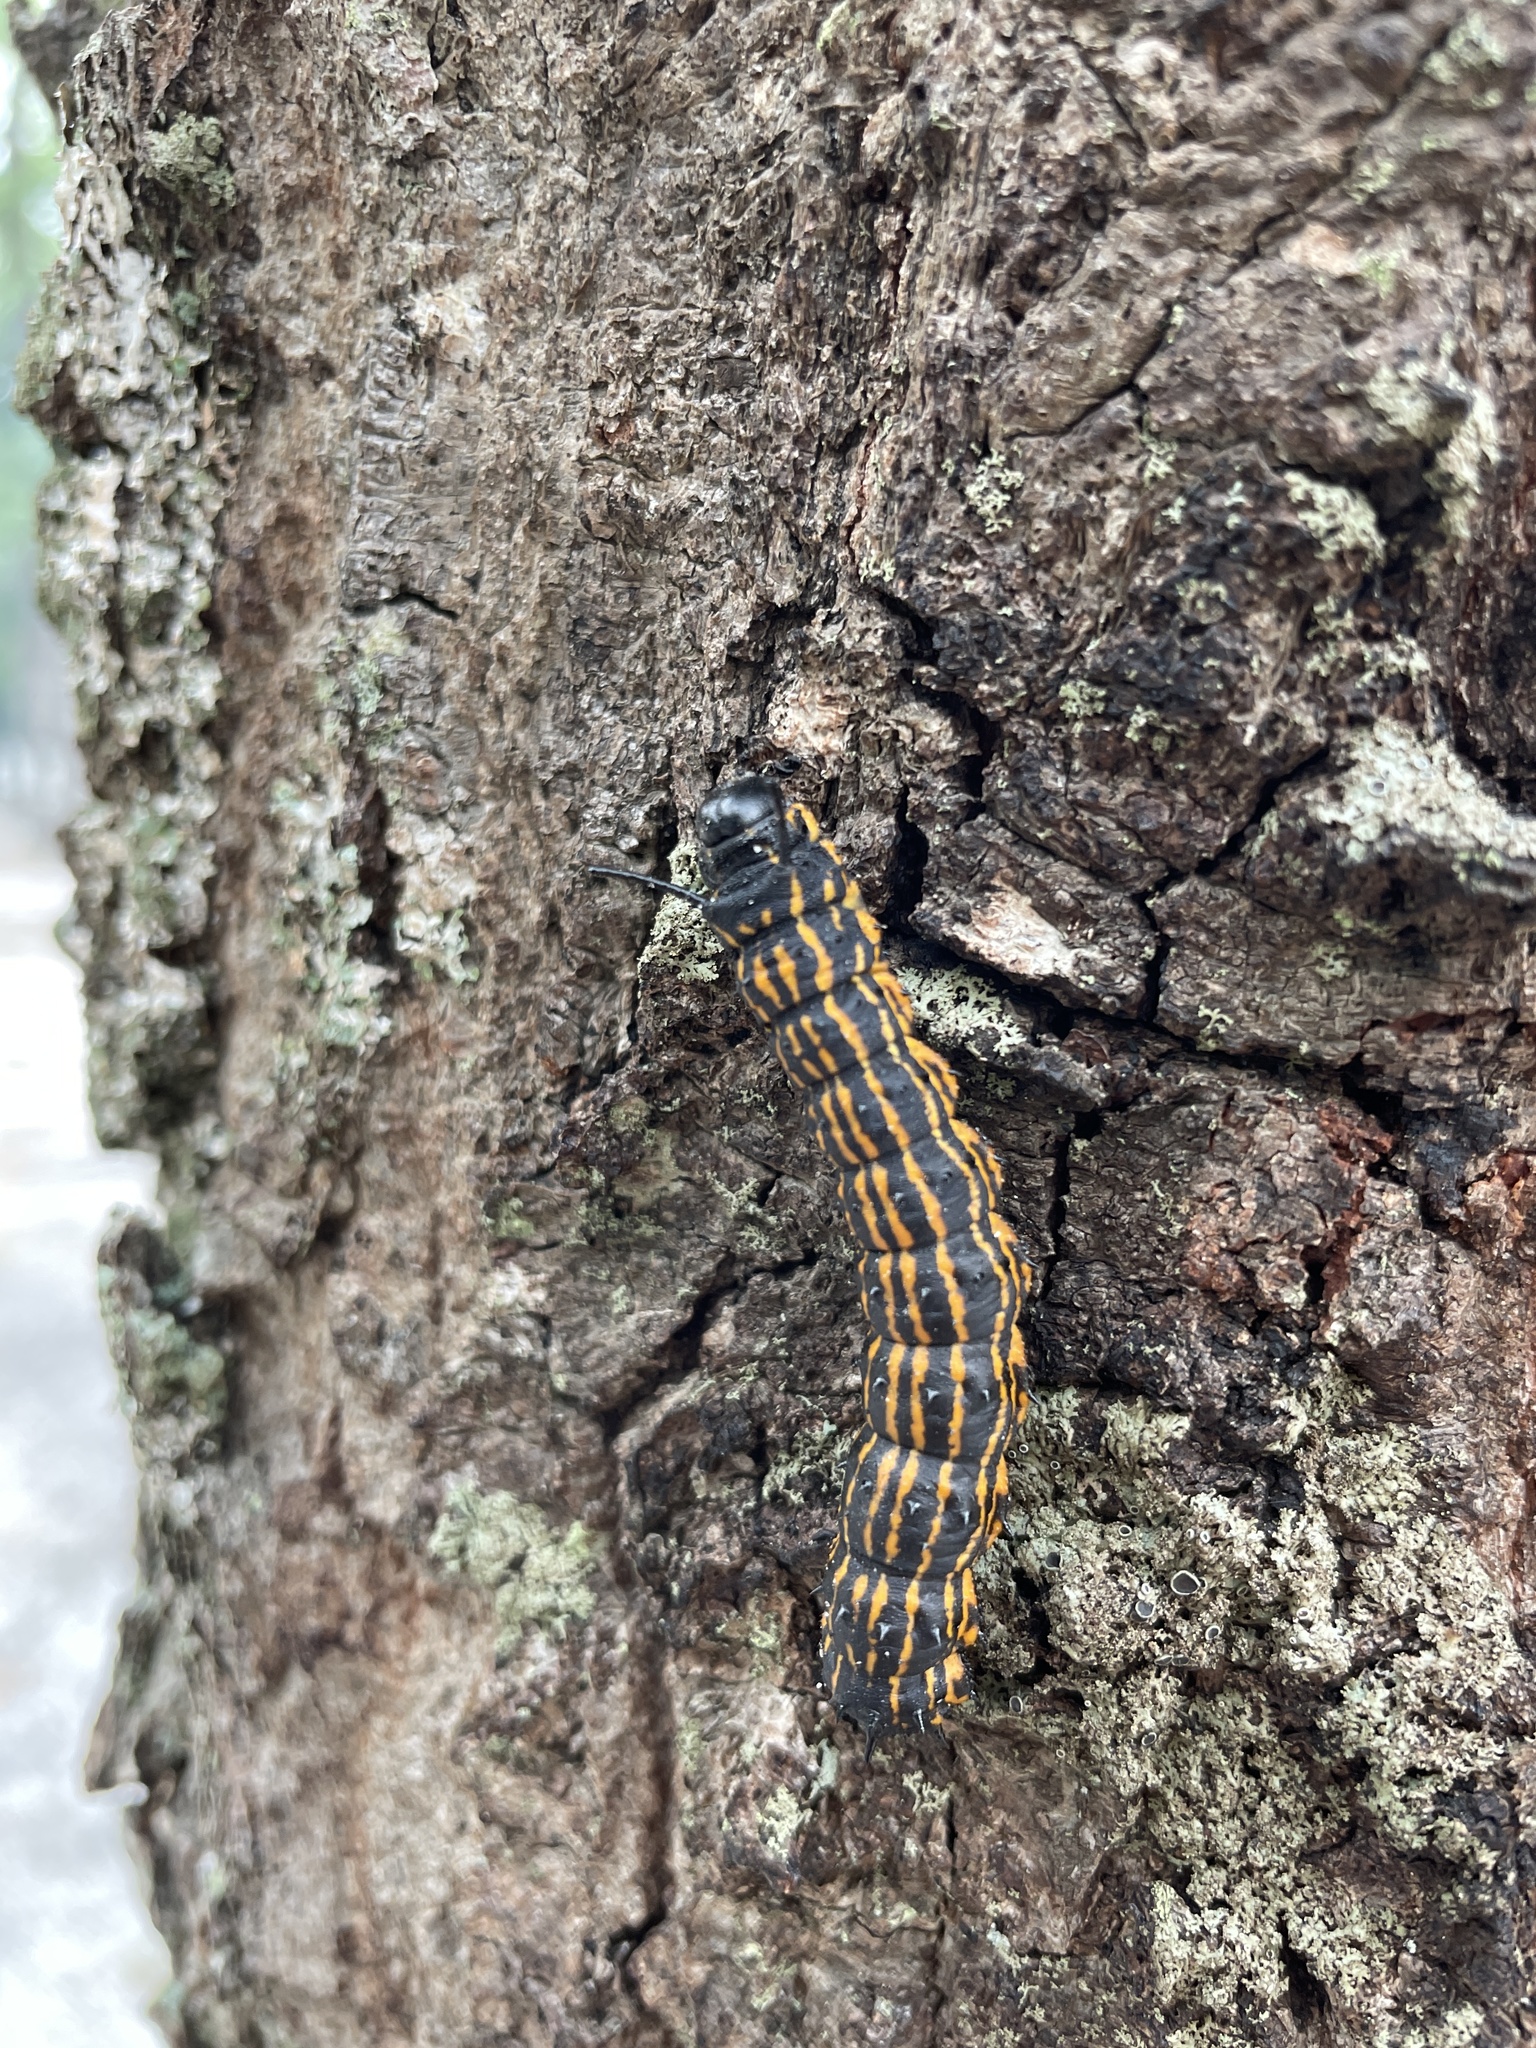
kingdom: Animalia
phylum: Arthropoda
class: Insecta
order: Lepidoptera
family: Saturniidae
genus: Anisota
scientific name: Anisota senatoria
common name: Orange-striped oakworm moth
